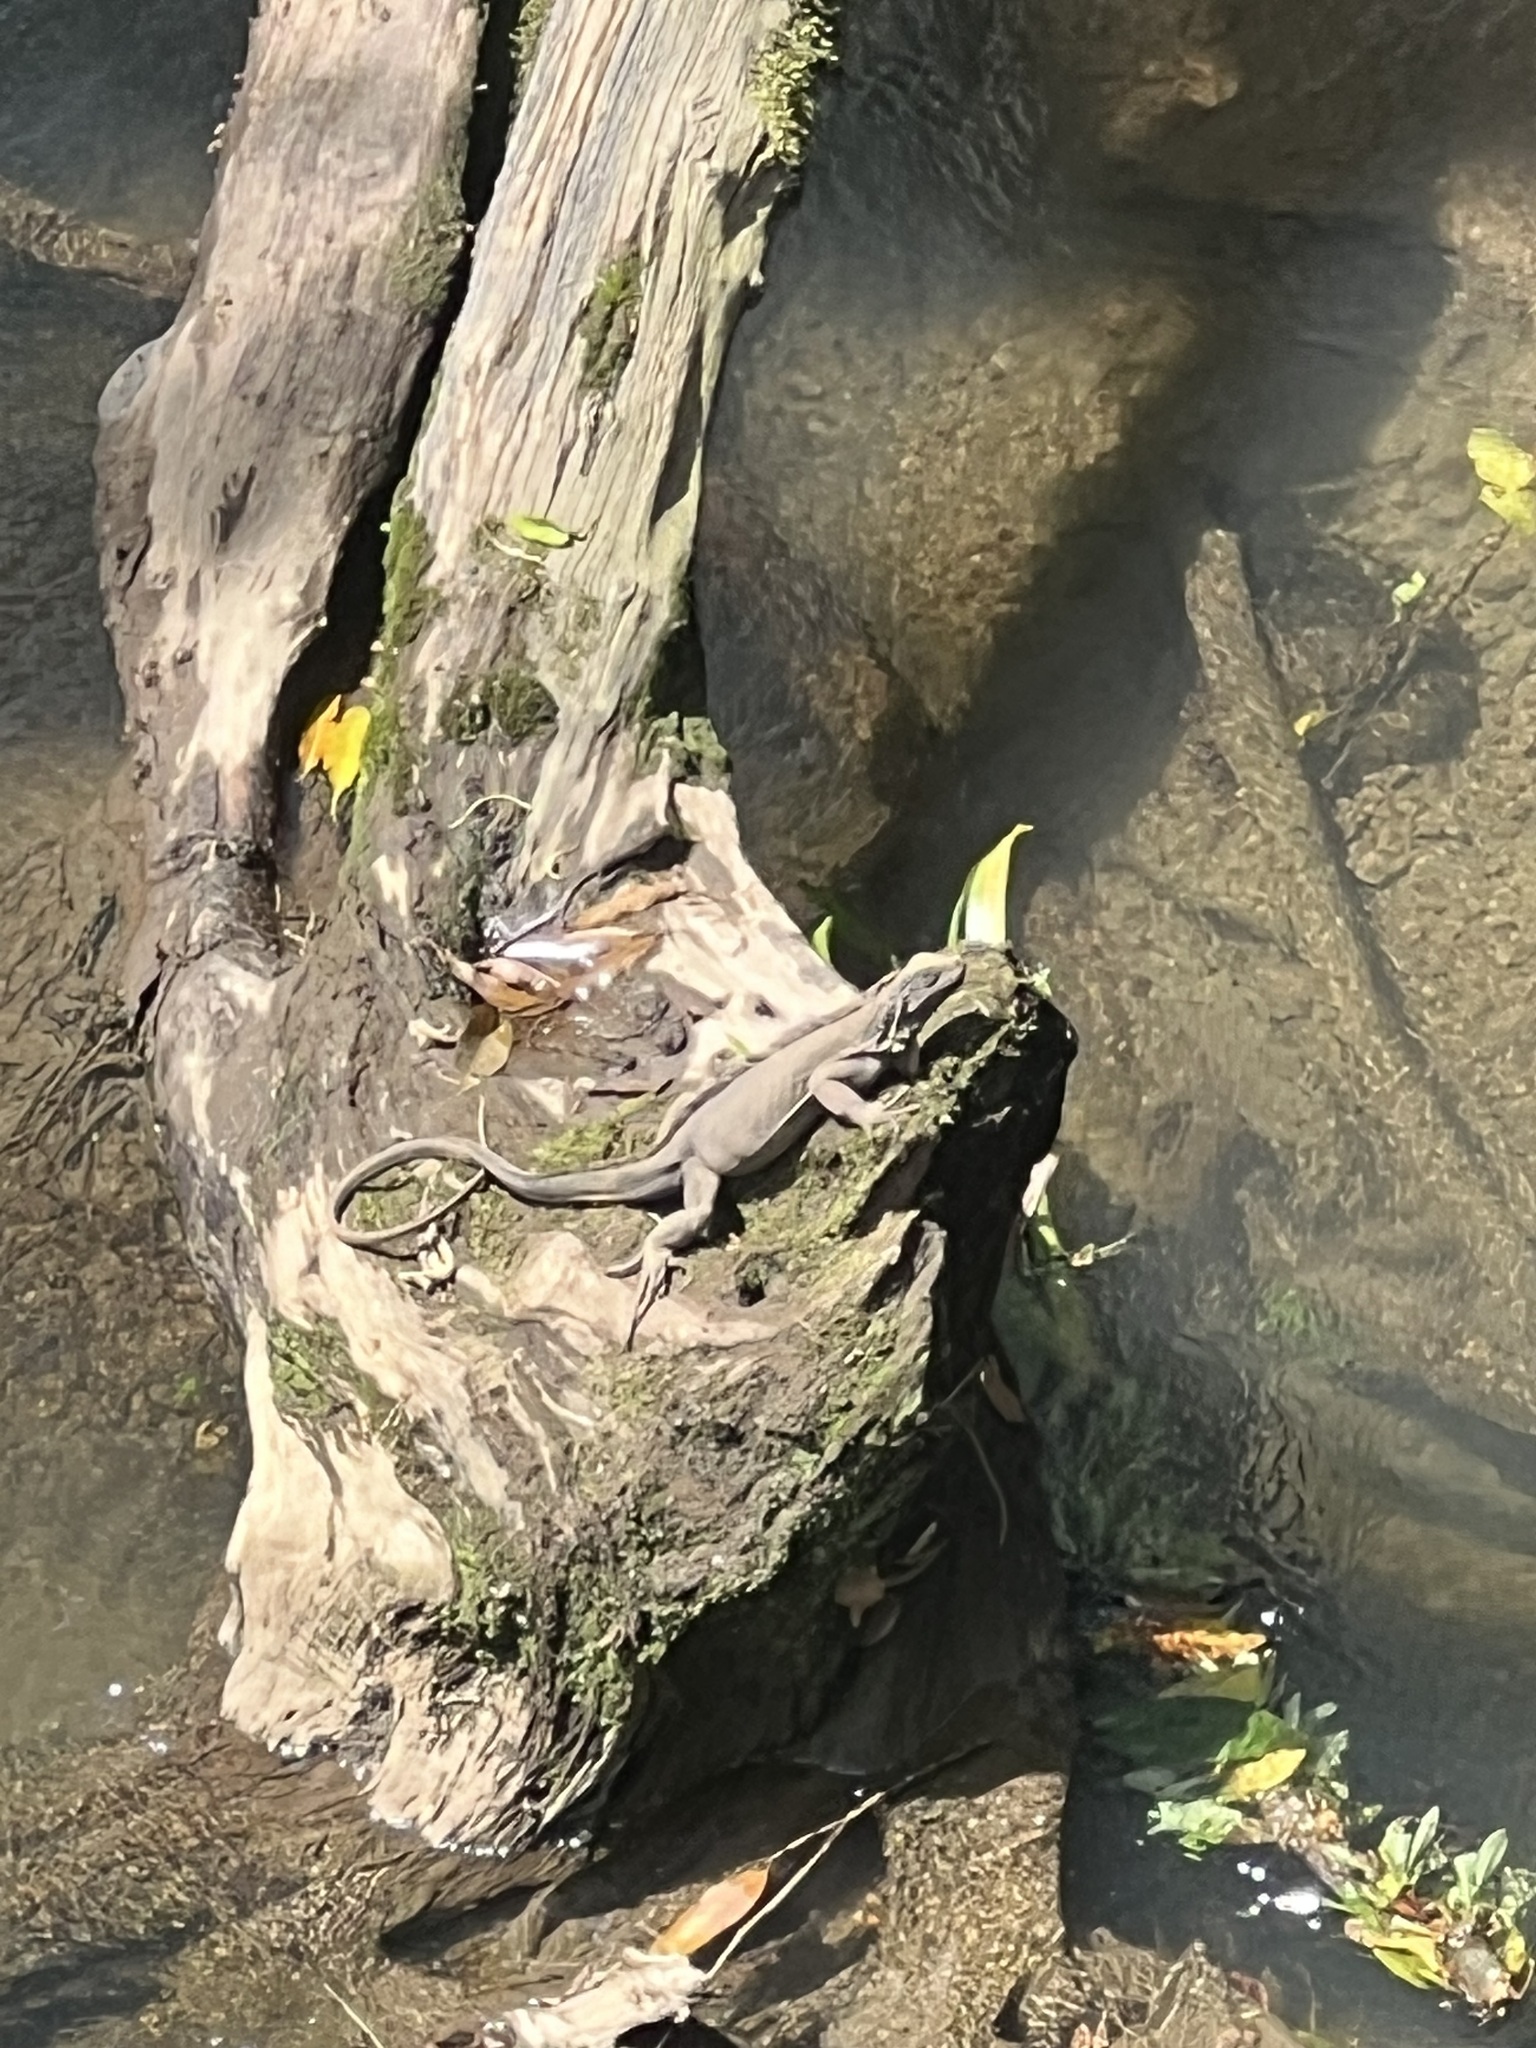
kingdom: Animalia
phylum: Chordata
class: Squamata
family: Iguanidae
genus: Iguana
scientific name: Iguana iguana
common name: Green iguana
